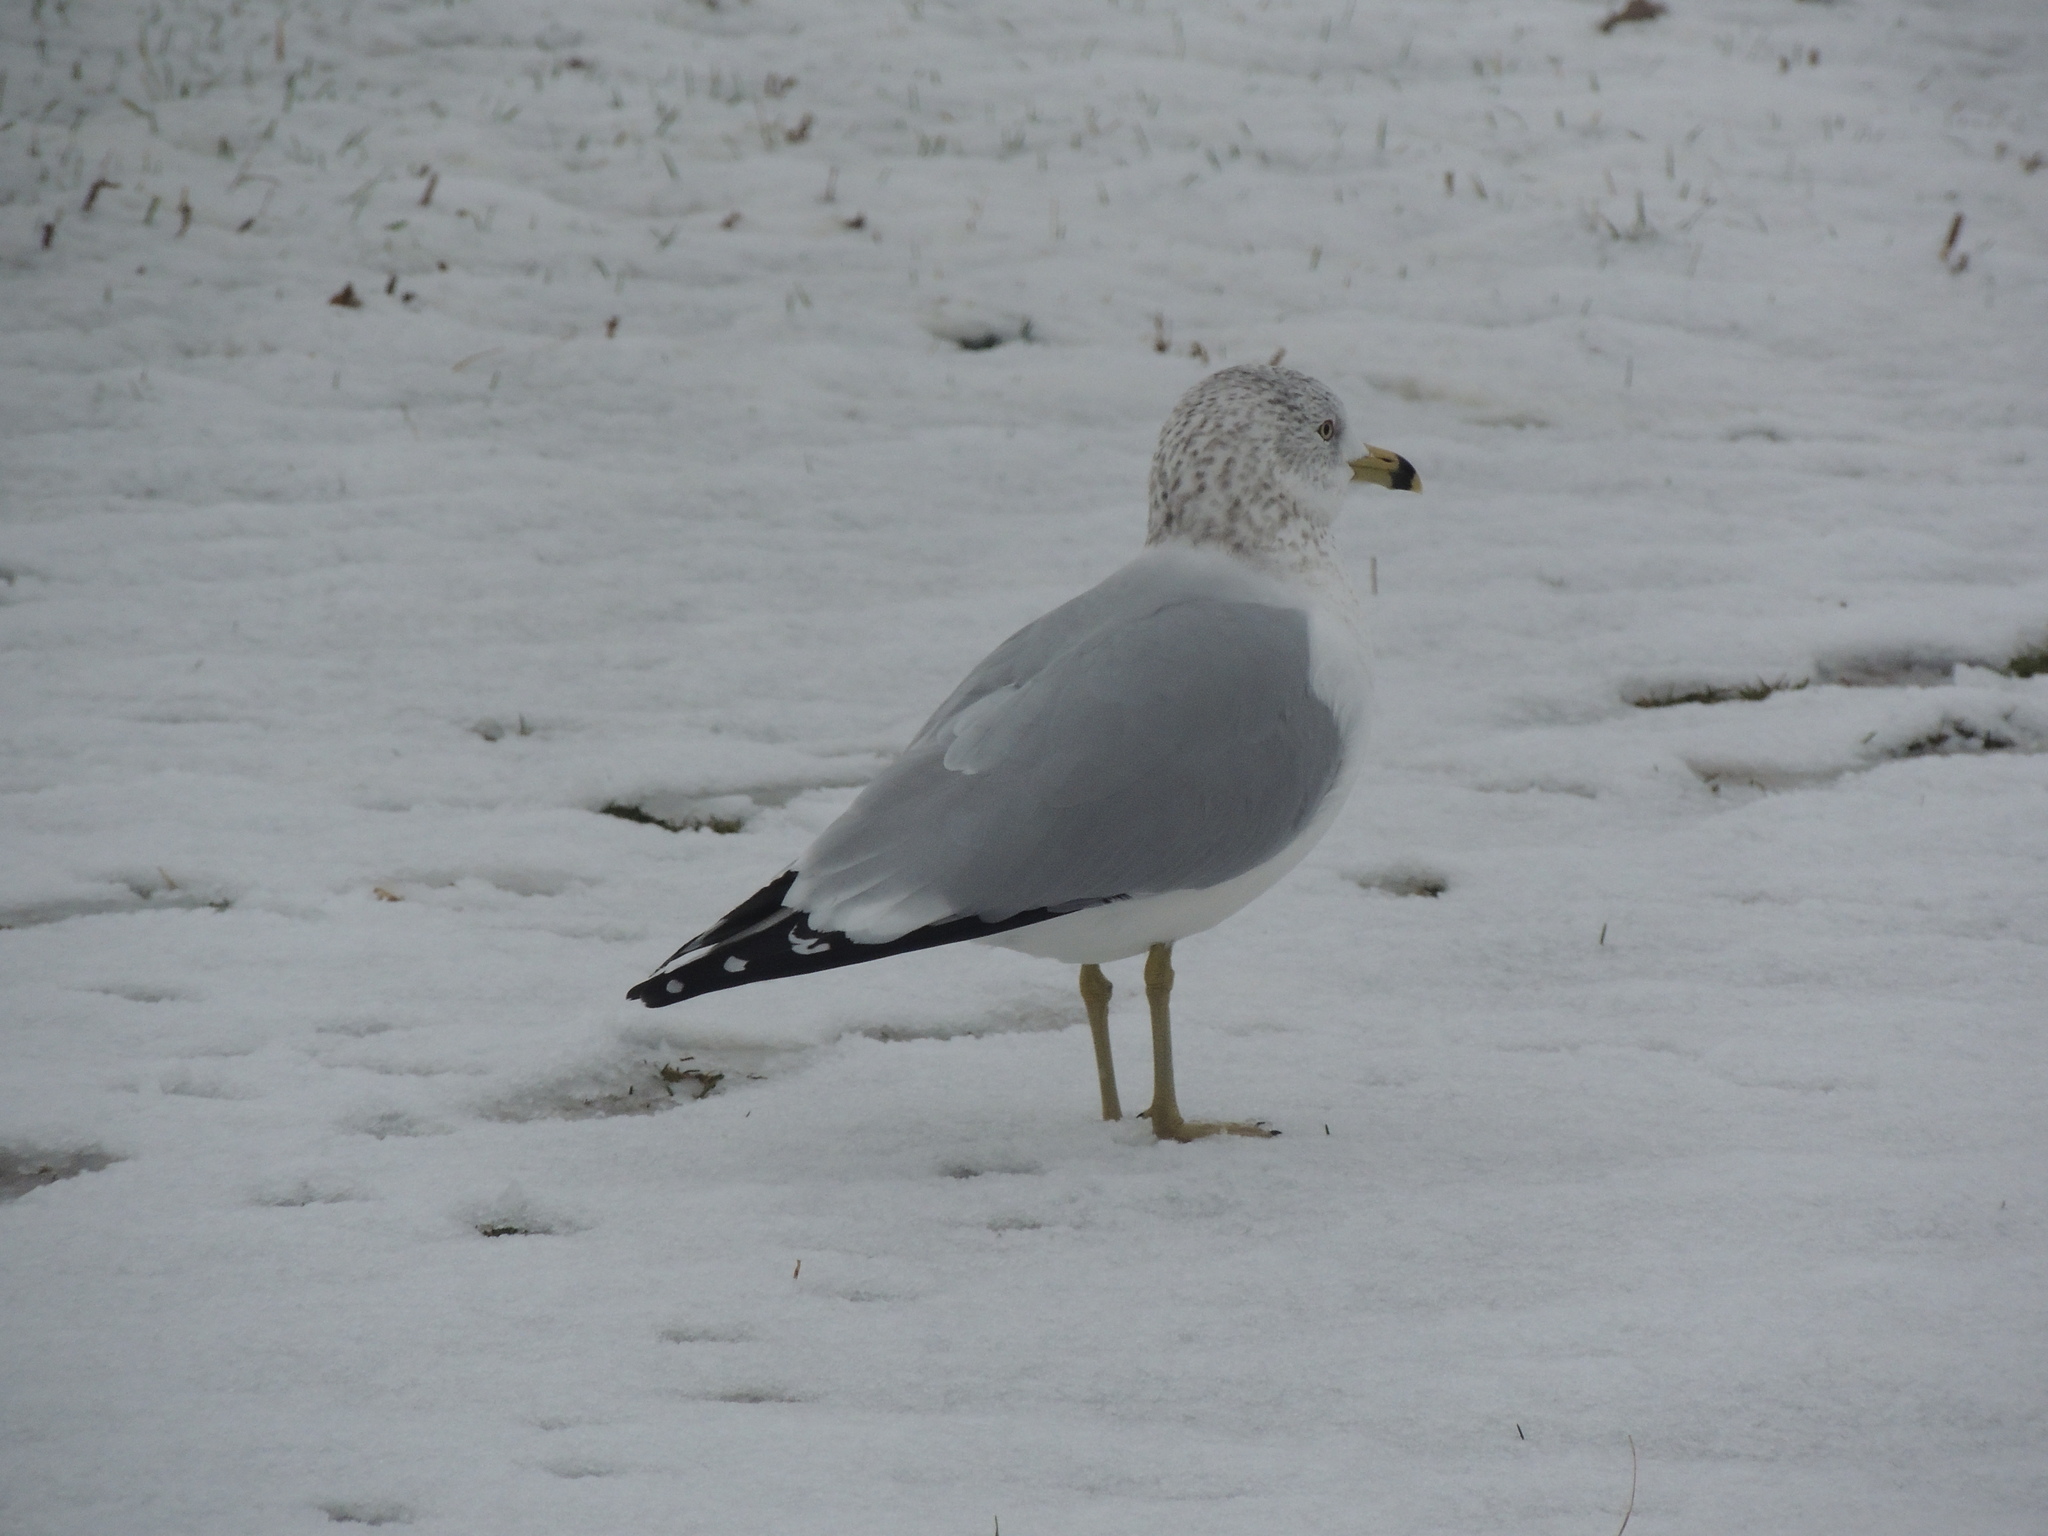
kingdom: Animalia
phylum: Chordata
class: Aves
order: Charadriiformes
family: Laridae
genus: Larus
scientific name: Larus delawarensis
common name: Ring-billed gull
